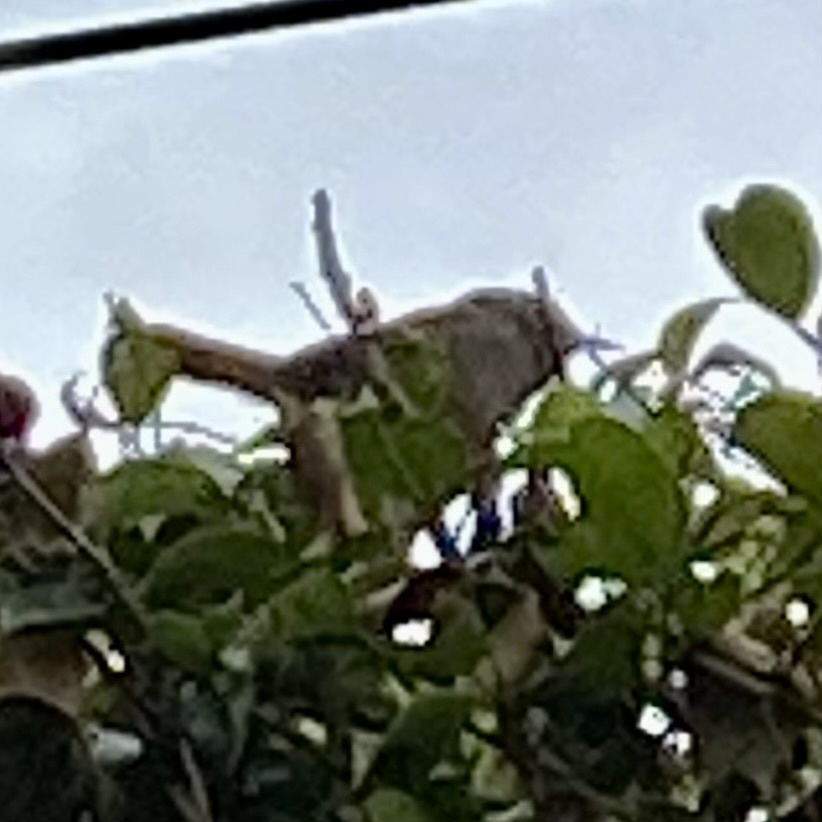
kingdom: Animalia
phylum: Chordata
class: Aves
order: Passeriformes
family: Troglodytidae
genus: Troglodytes
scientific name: Troglodytes aedon
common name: House wren
